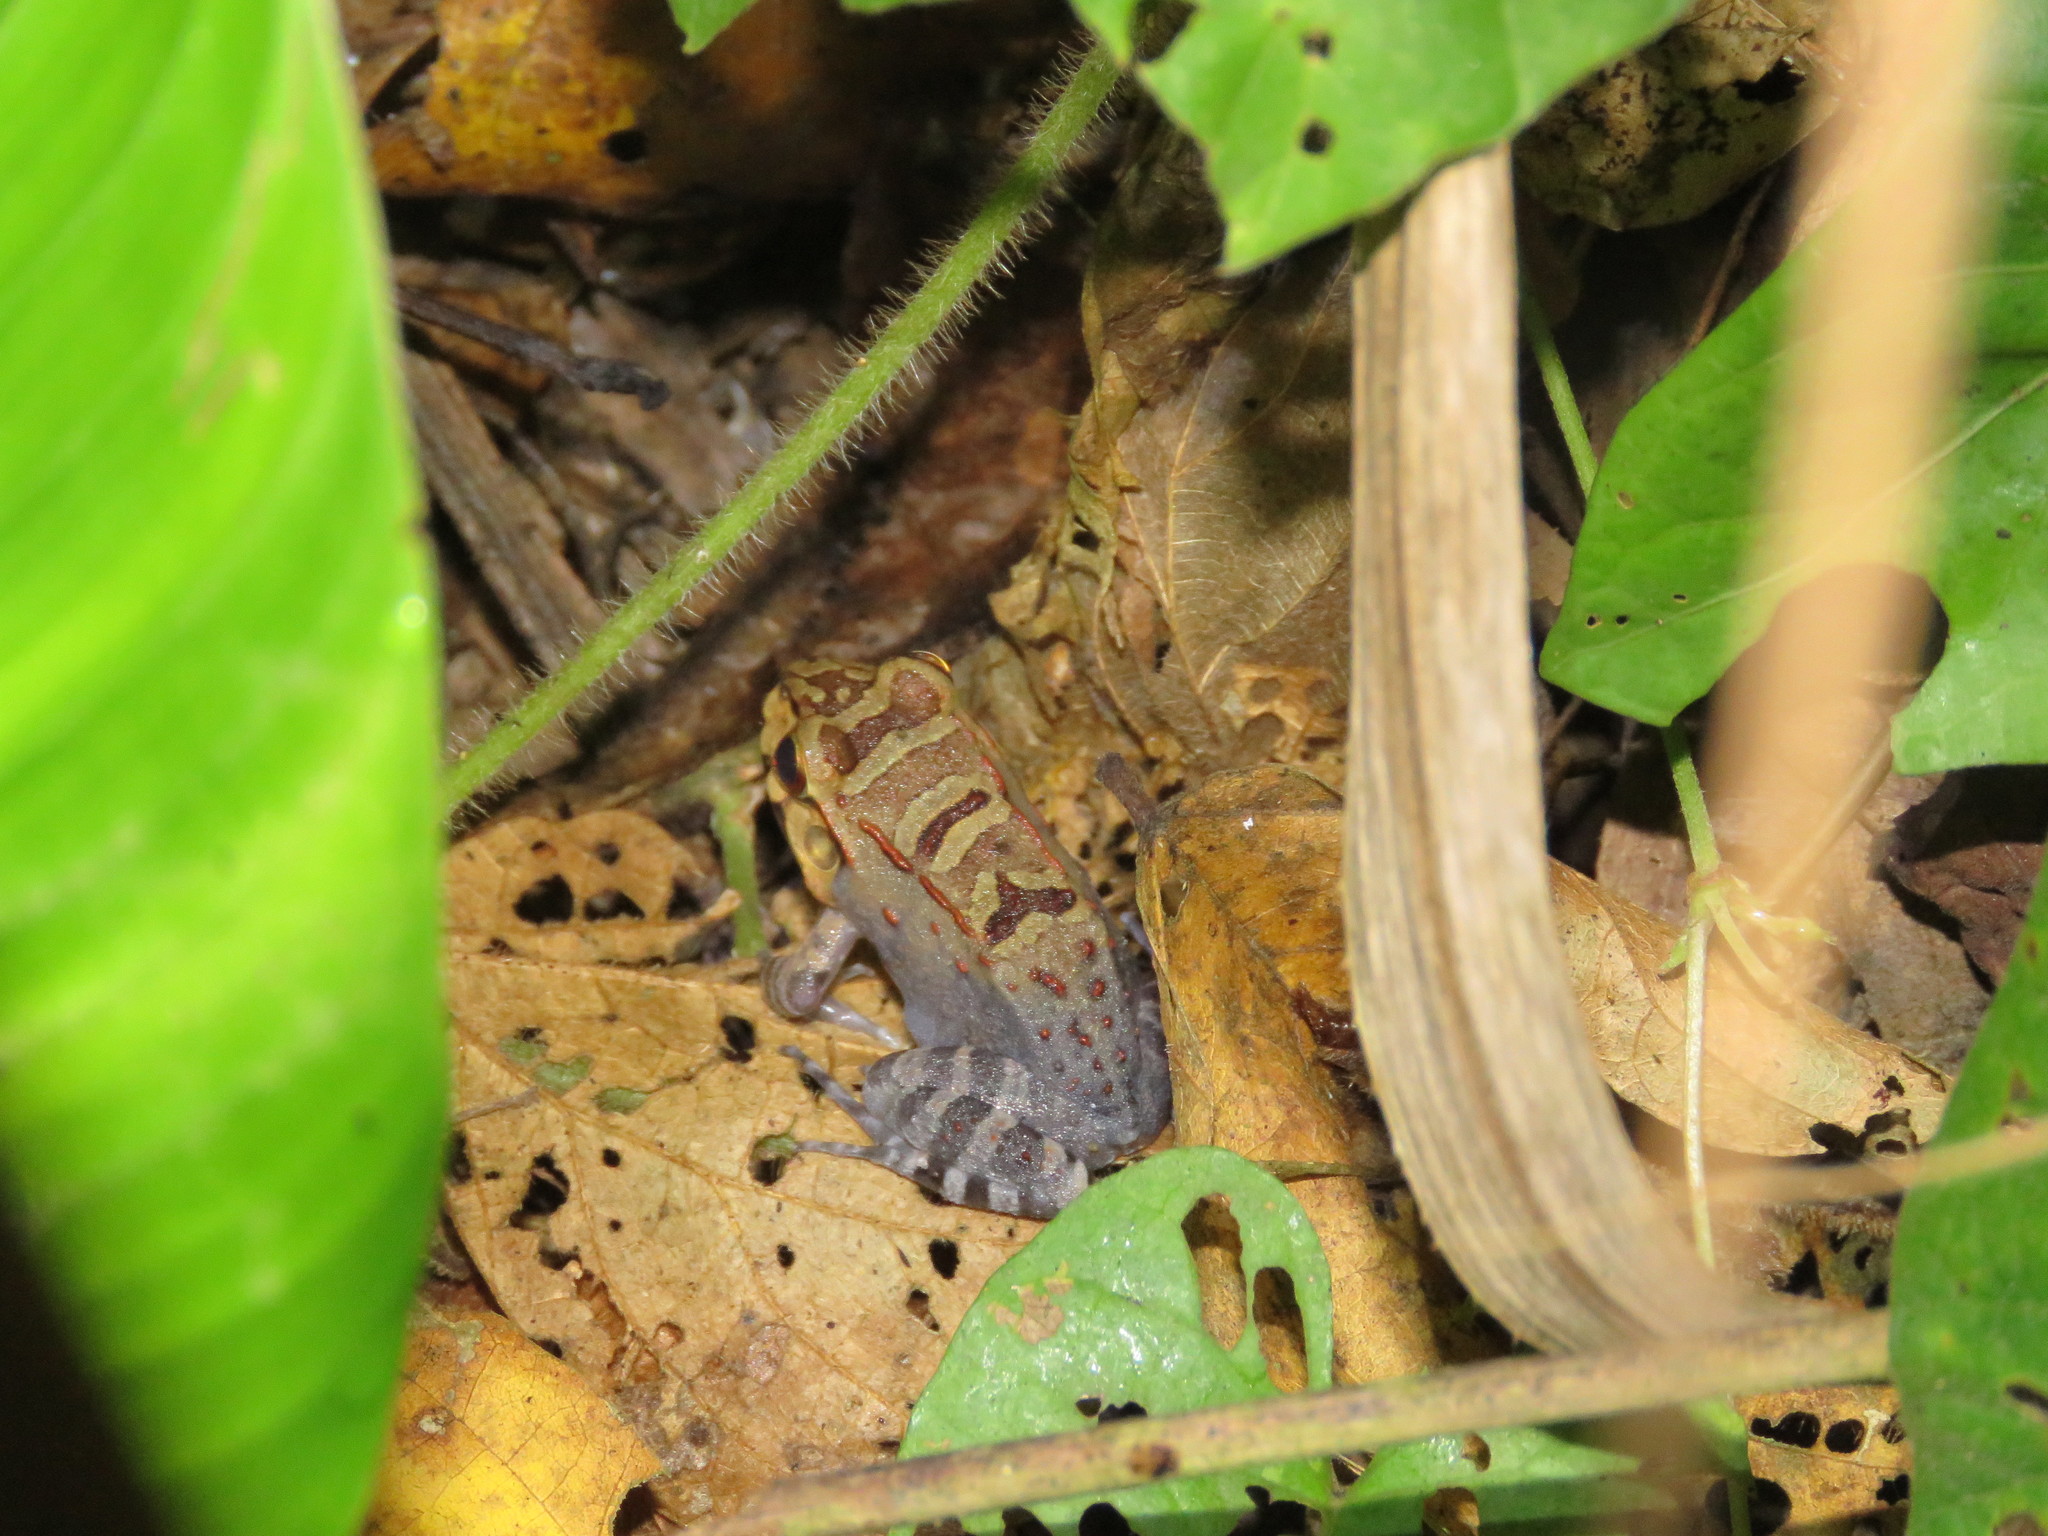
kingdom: Animalia
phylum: Chordata
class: Amphibia
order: Anura
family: Leptodactylidae
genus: Leptodactylus
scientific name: Leptodactylus knudseni
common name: Knudsen's frog
